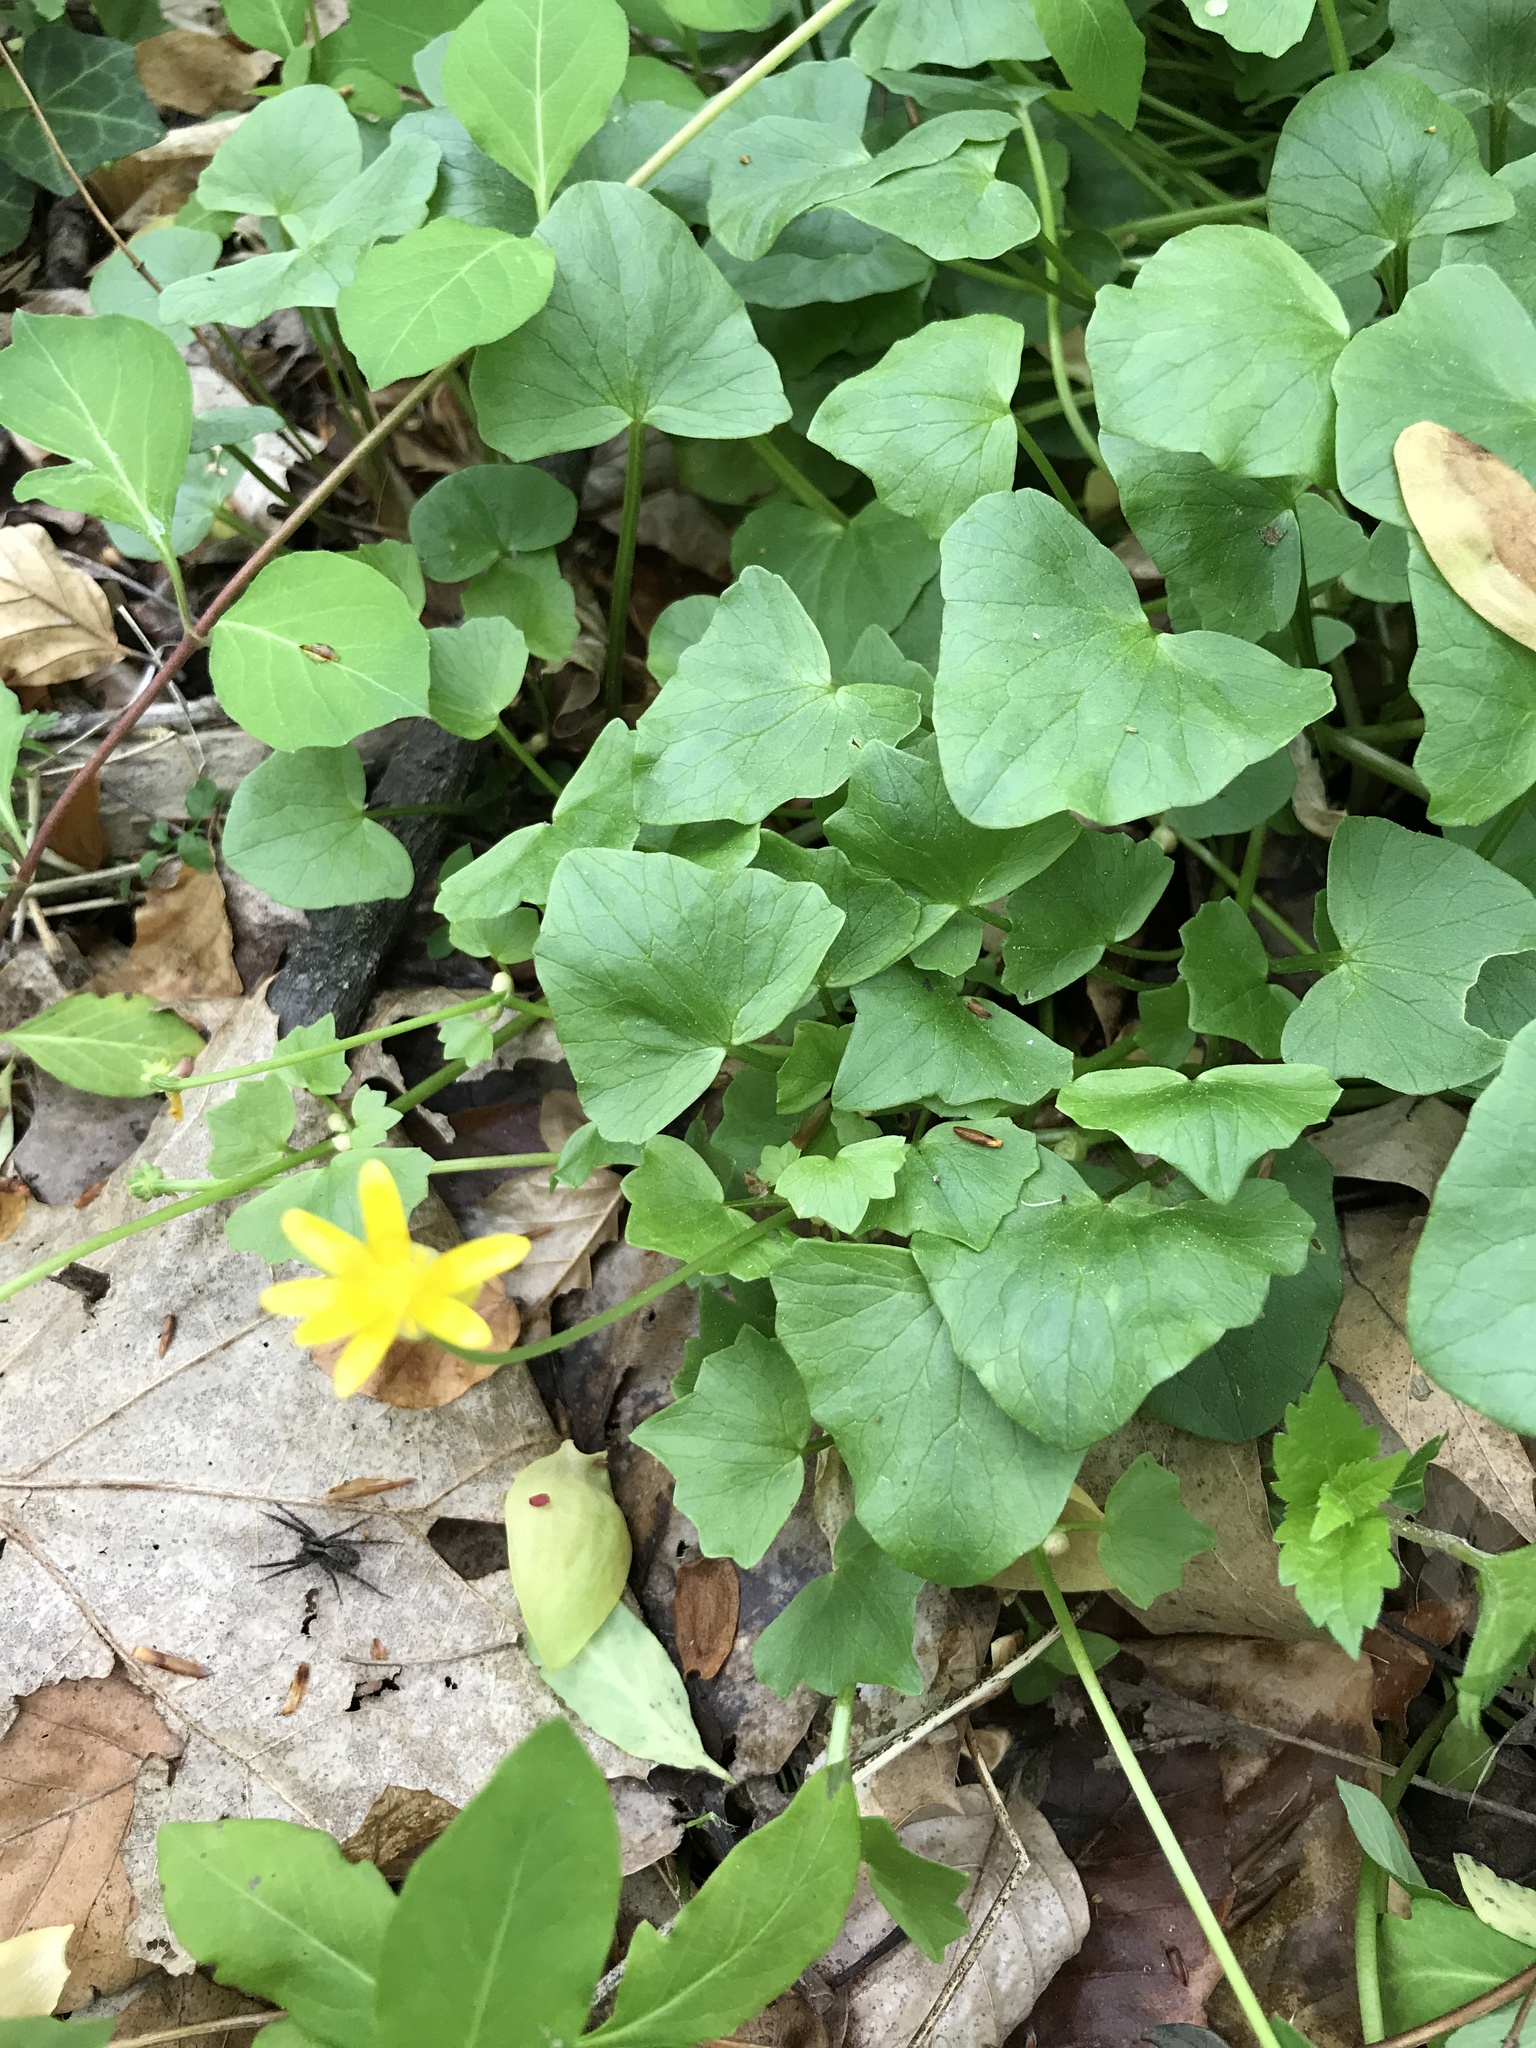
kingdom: Plantae
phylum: Tracheophyta
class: Magnoliopsida
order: Ranunculales
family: Ranunculaceae
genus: Ficaria
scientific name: Ficaria verna
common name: Lesser celandine
